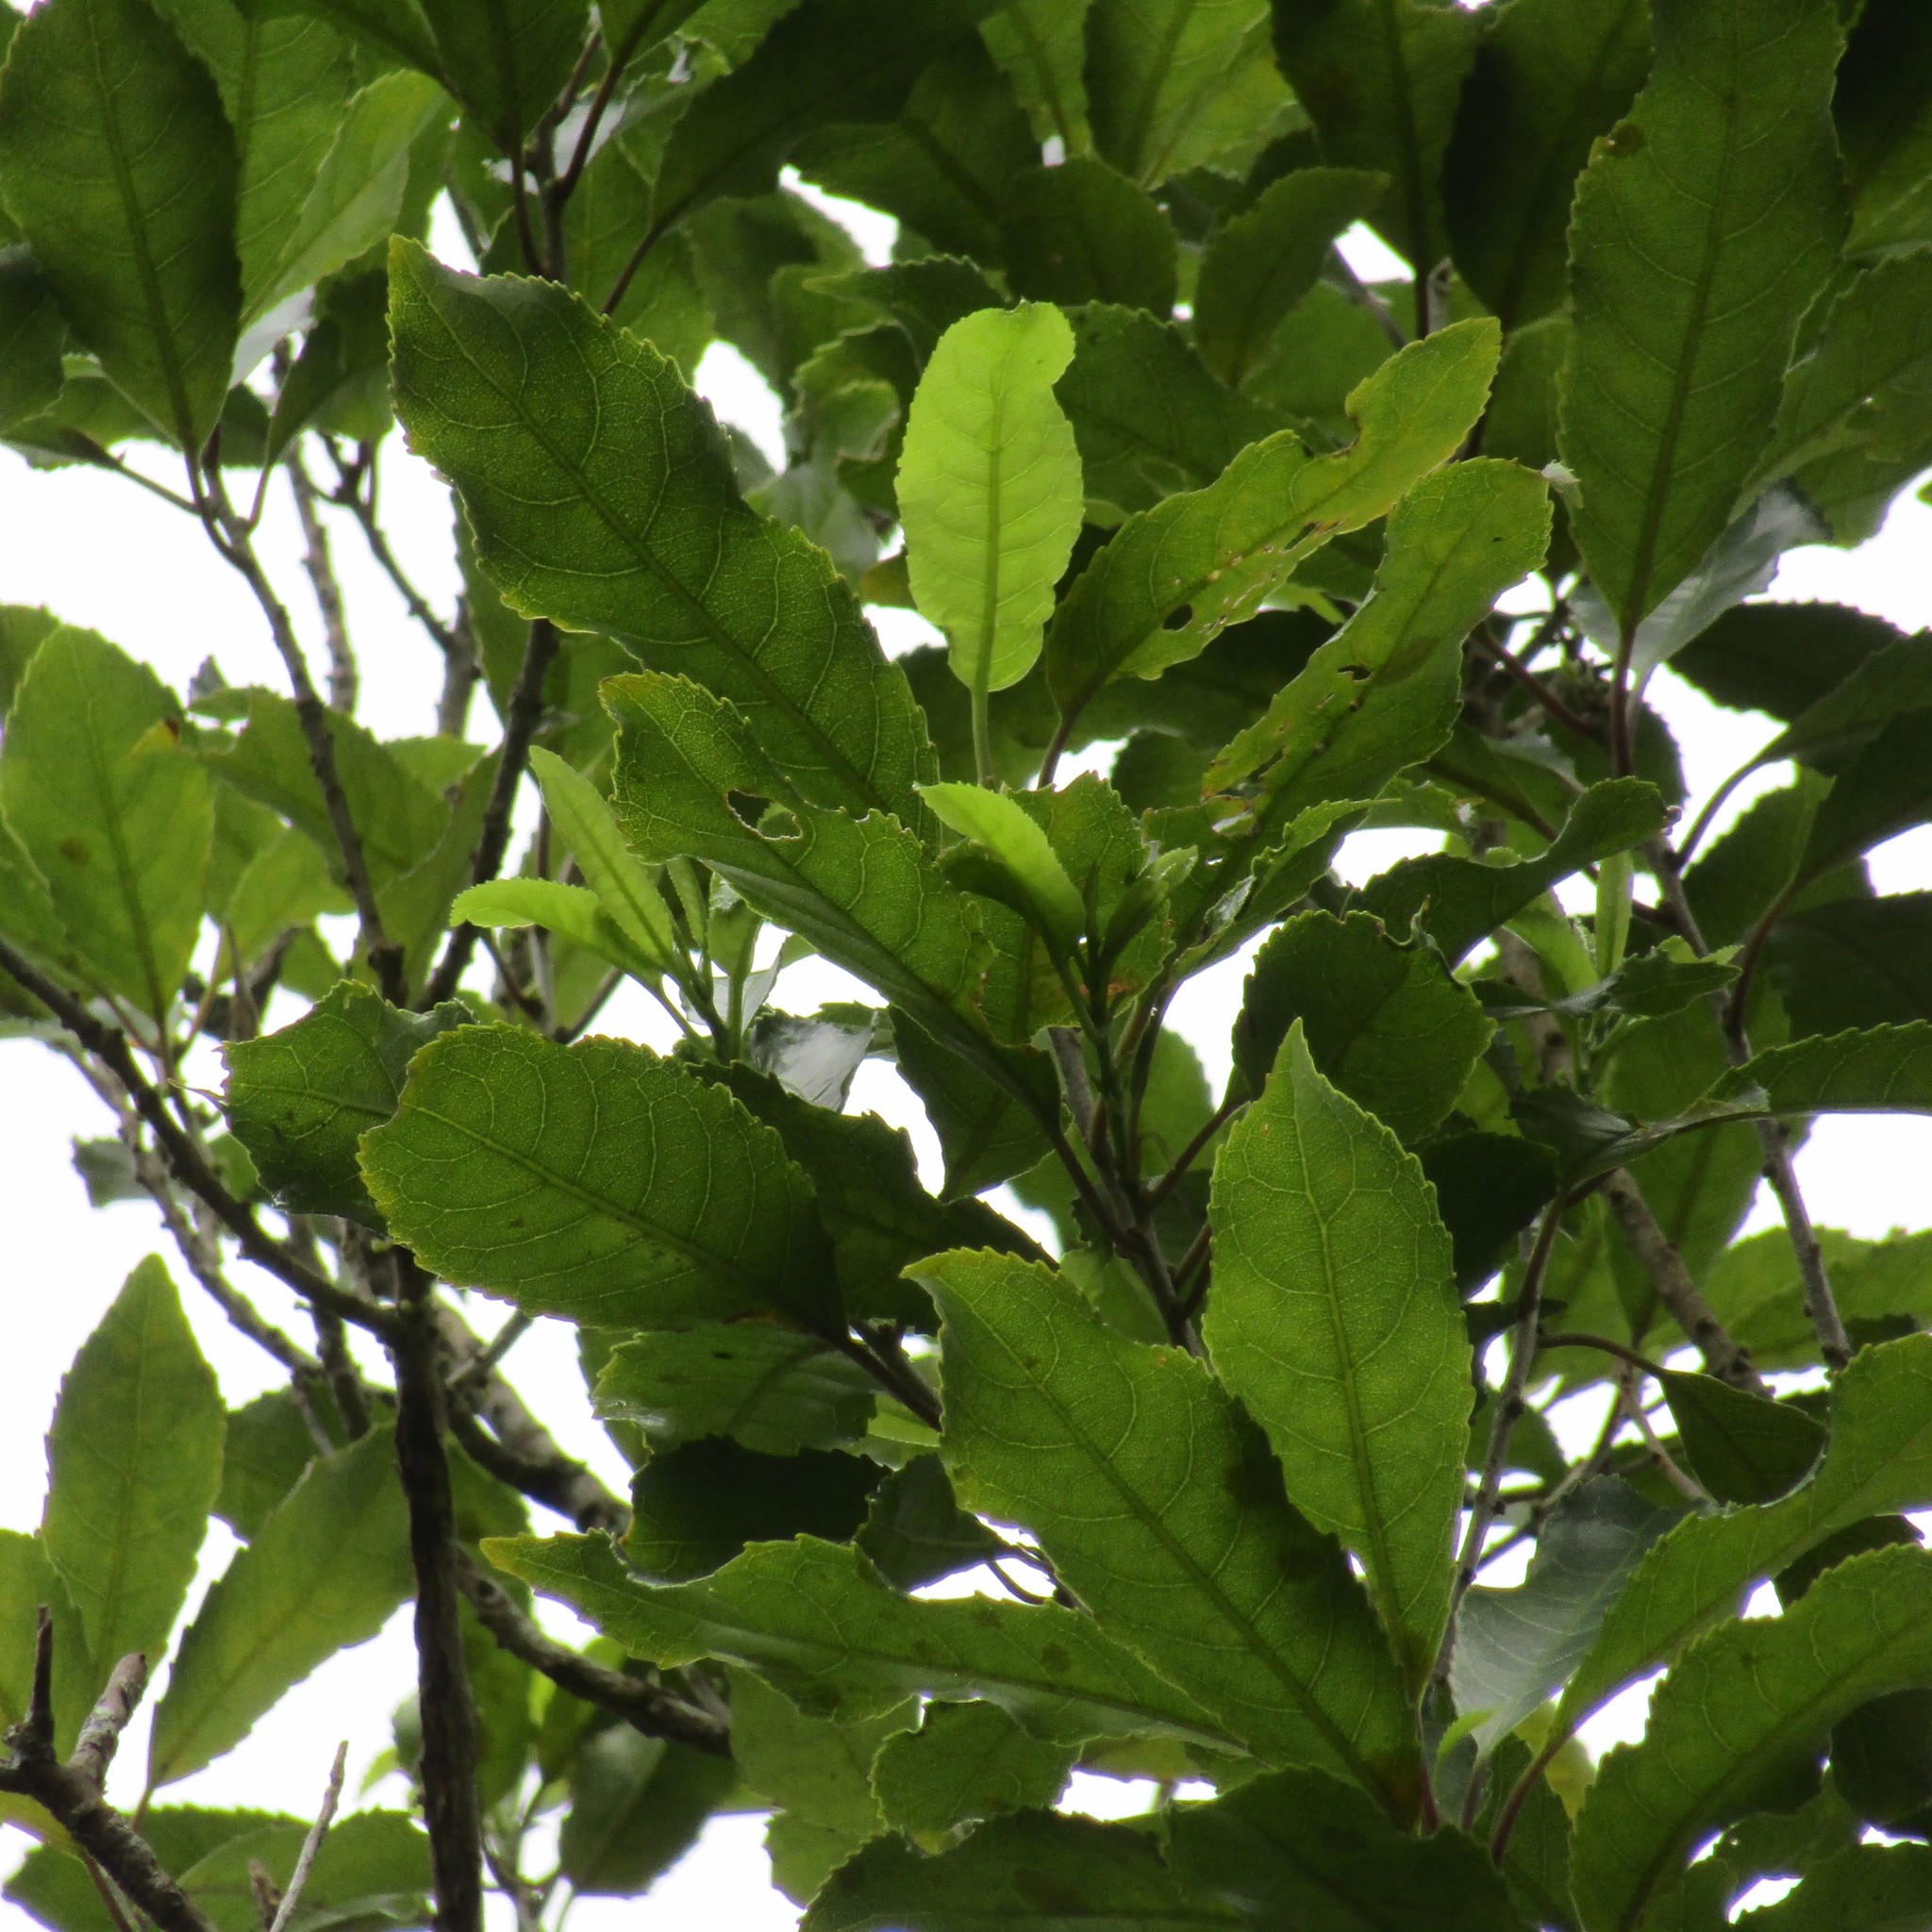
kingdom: Plantae
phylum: Tracheophyta
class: Magnoliopsida
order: Malpighiales
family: Violaceae
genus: Melicytus
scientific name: Melicytus ramiflorus
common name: Mahoe
